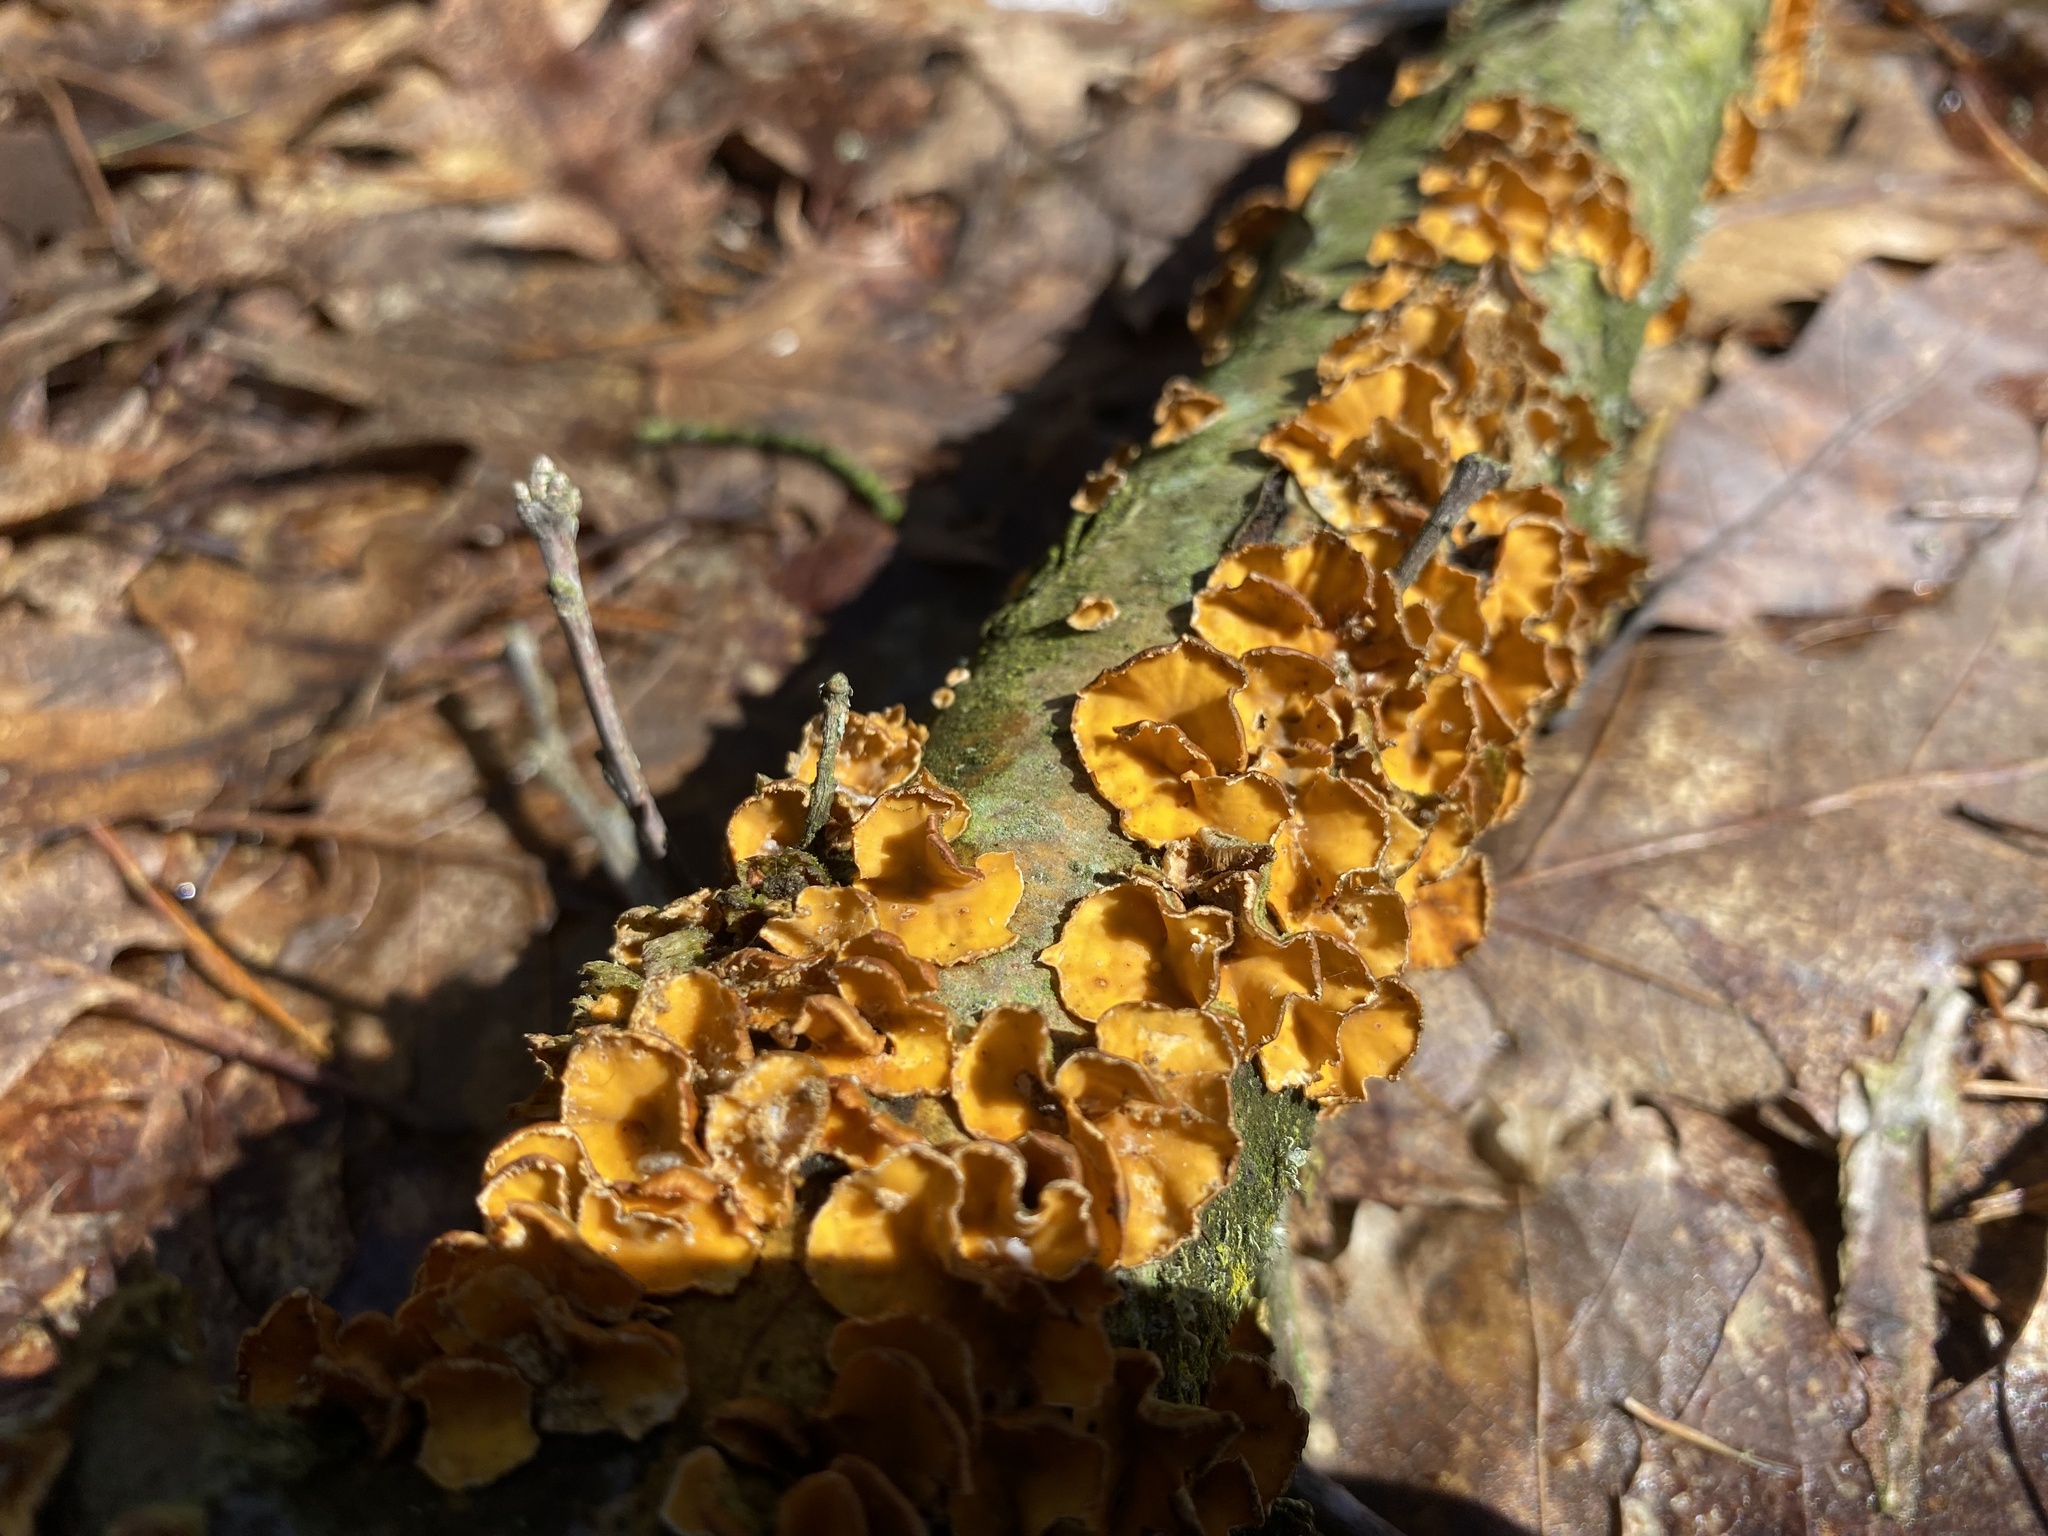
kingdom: Fungi
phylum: Basidiomycota
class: Agaricomycetes
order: Russulales
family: Stereaceae
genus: Stereum
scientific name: Stereum complicatum
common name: Crowded parchment
